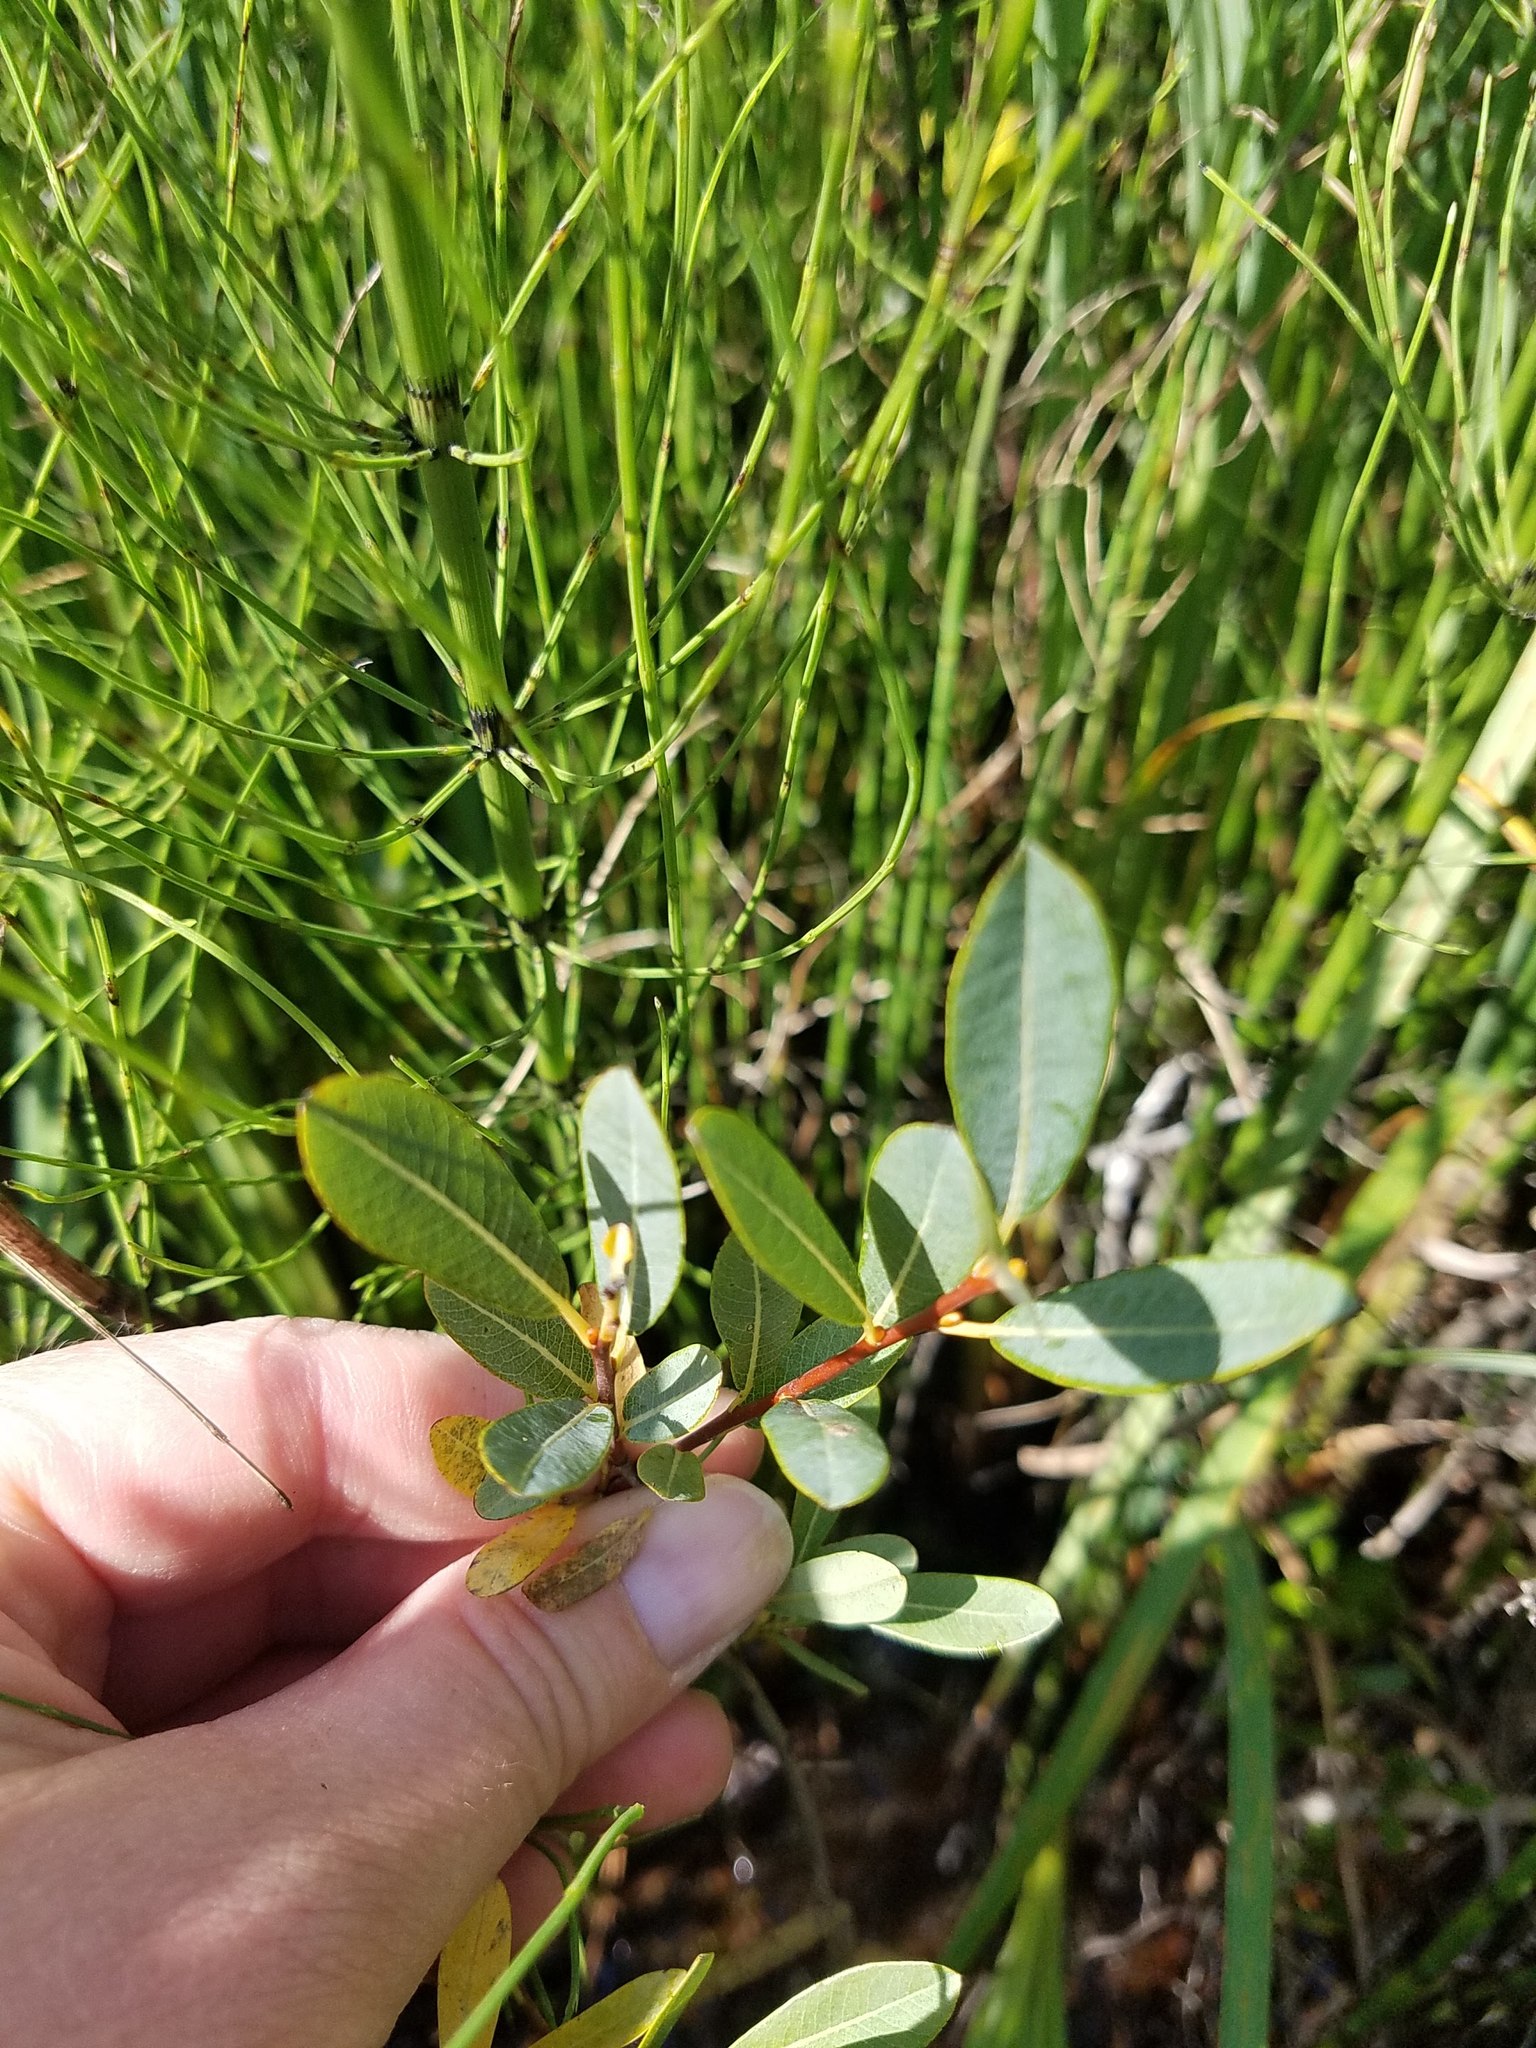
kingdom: Plantae
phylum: Tracheophyta
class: Magnoliopsida
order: Malpighiales
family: Salicaceae
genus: Salix
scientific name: Salix pedicellaris
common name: Bog willow
